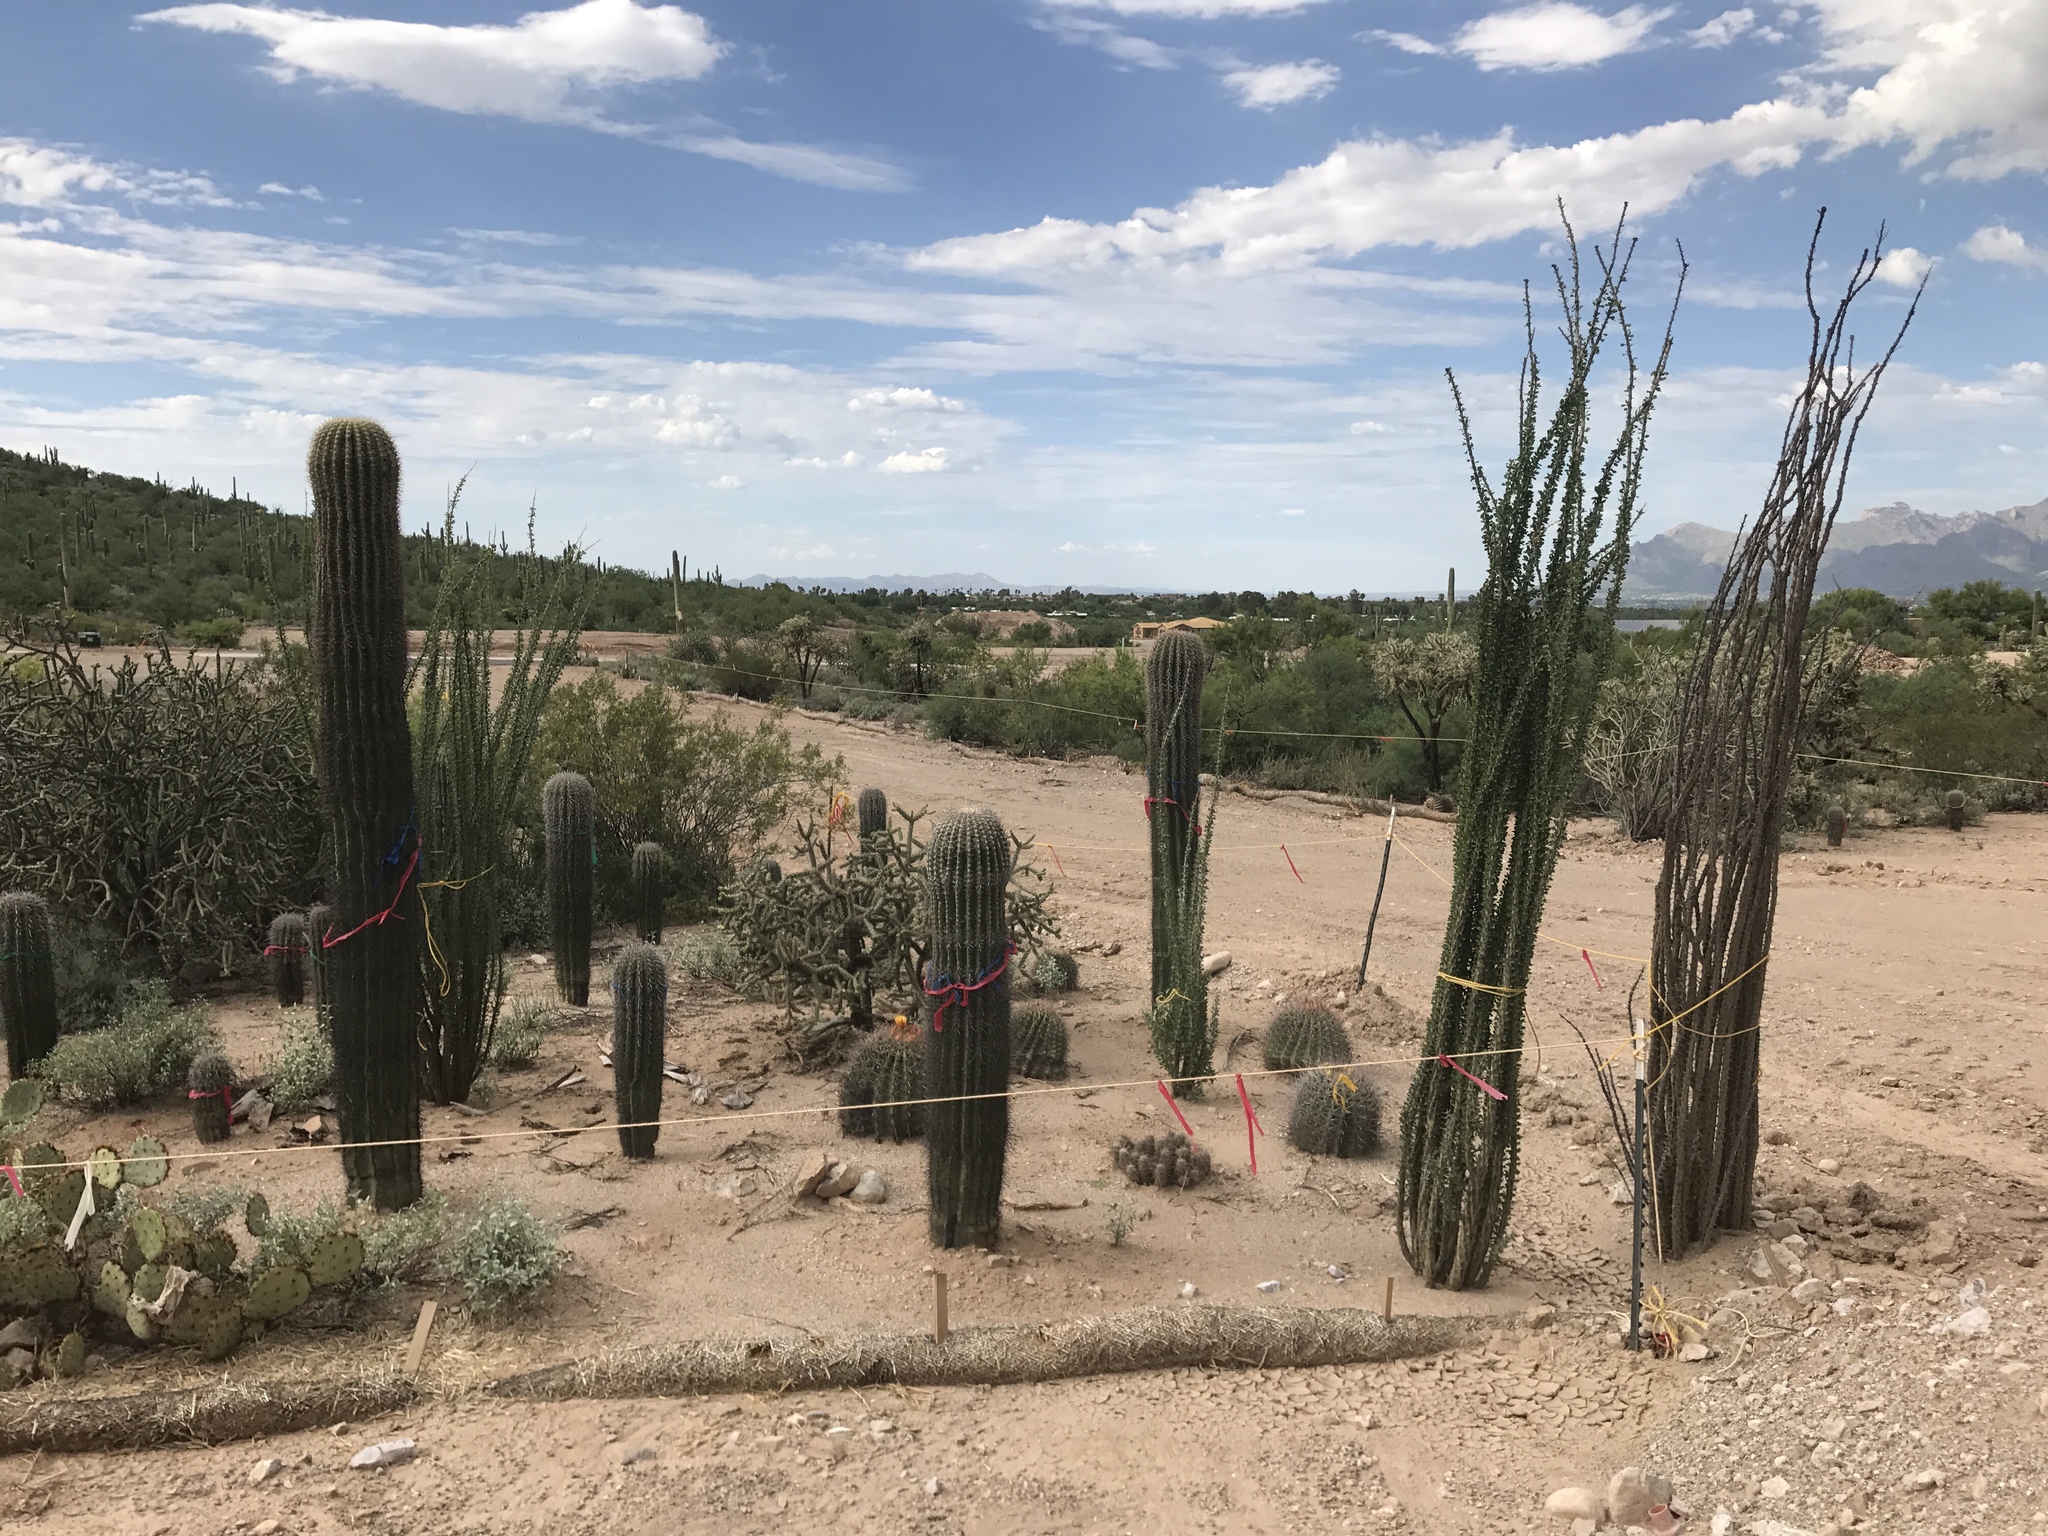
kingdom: Plantae
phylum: Tracheophyta
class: Magnoliopsida
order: Ericales
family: Fouquieriaceae
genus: Fouquieria
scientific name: Fouquieria splendens
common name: Vine-cactus
